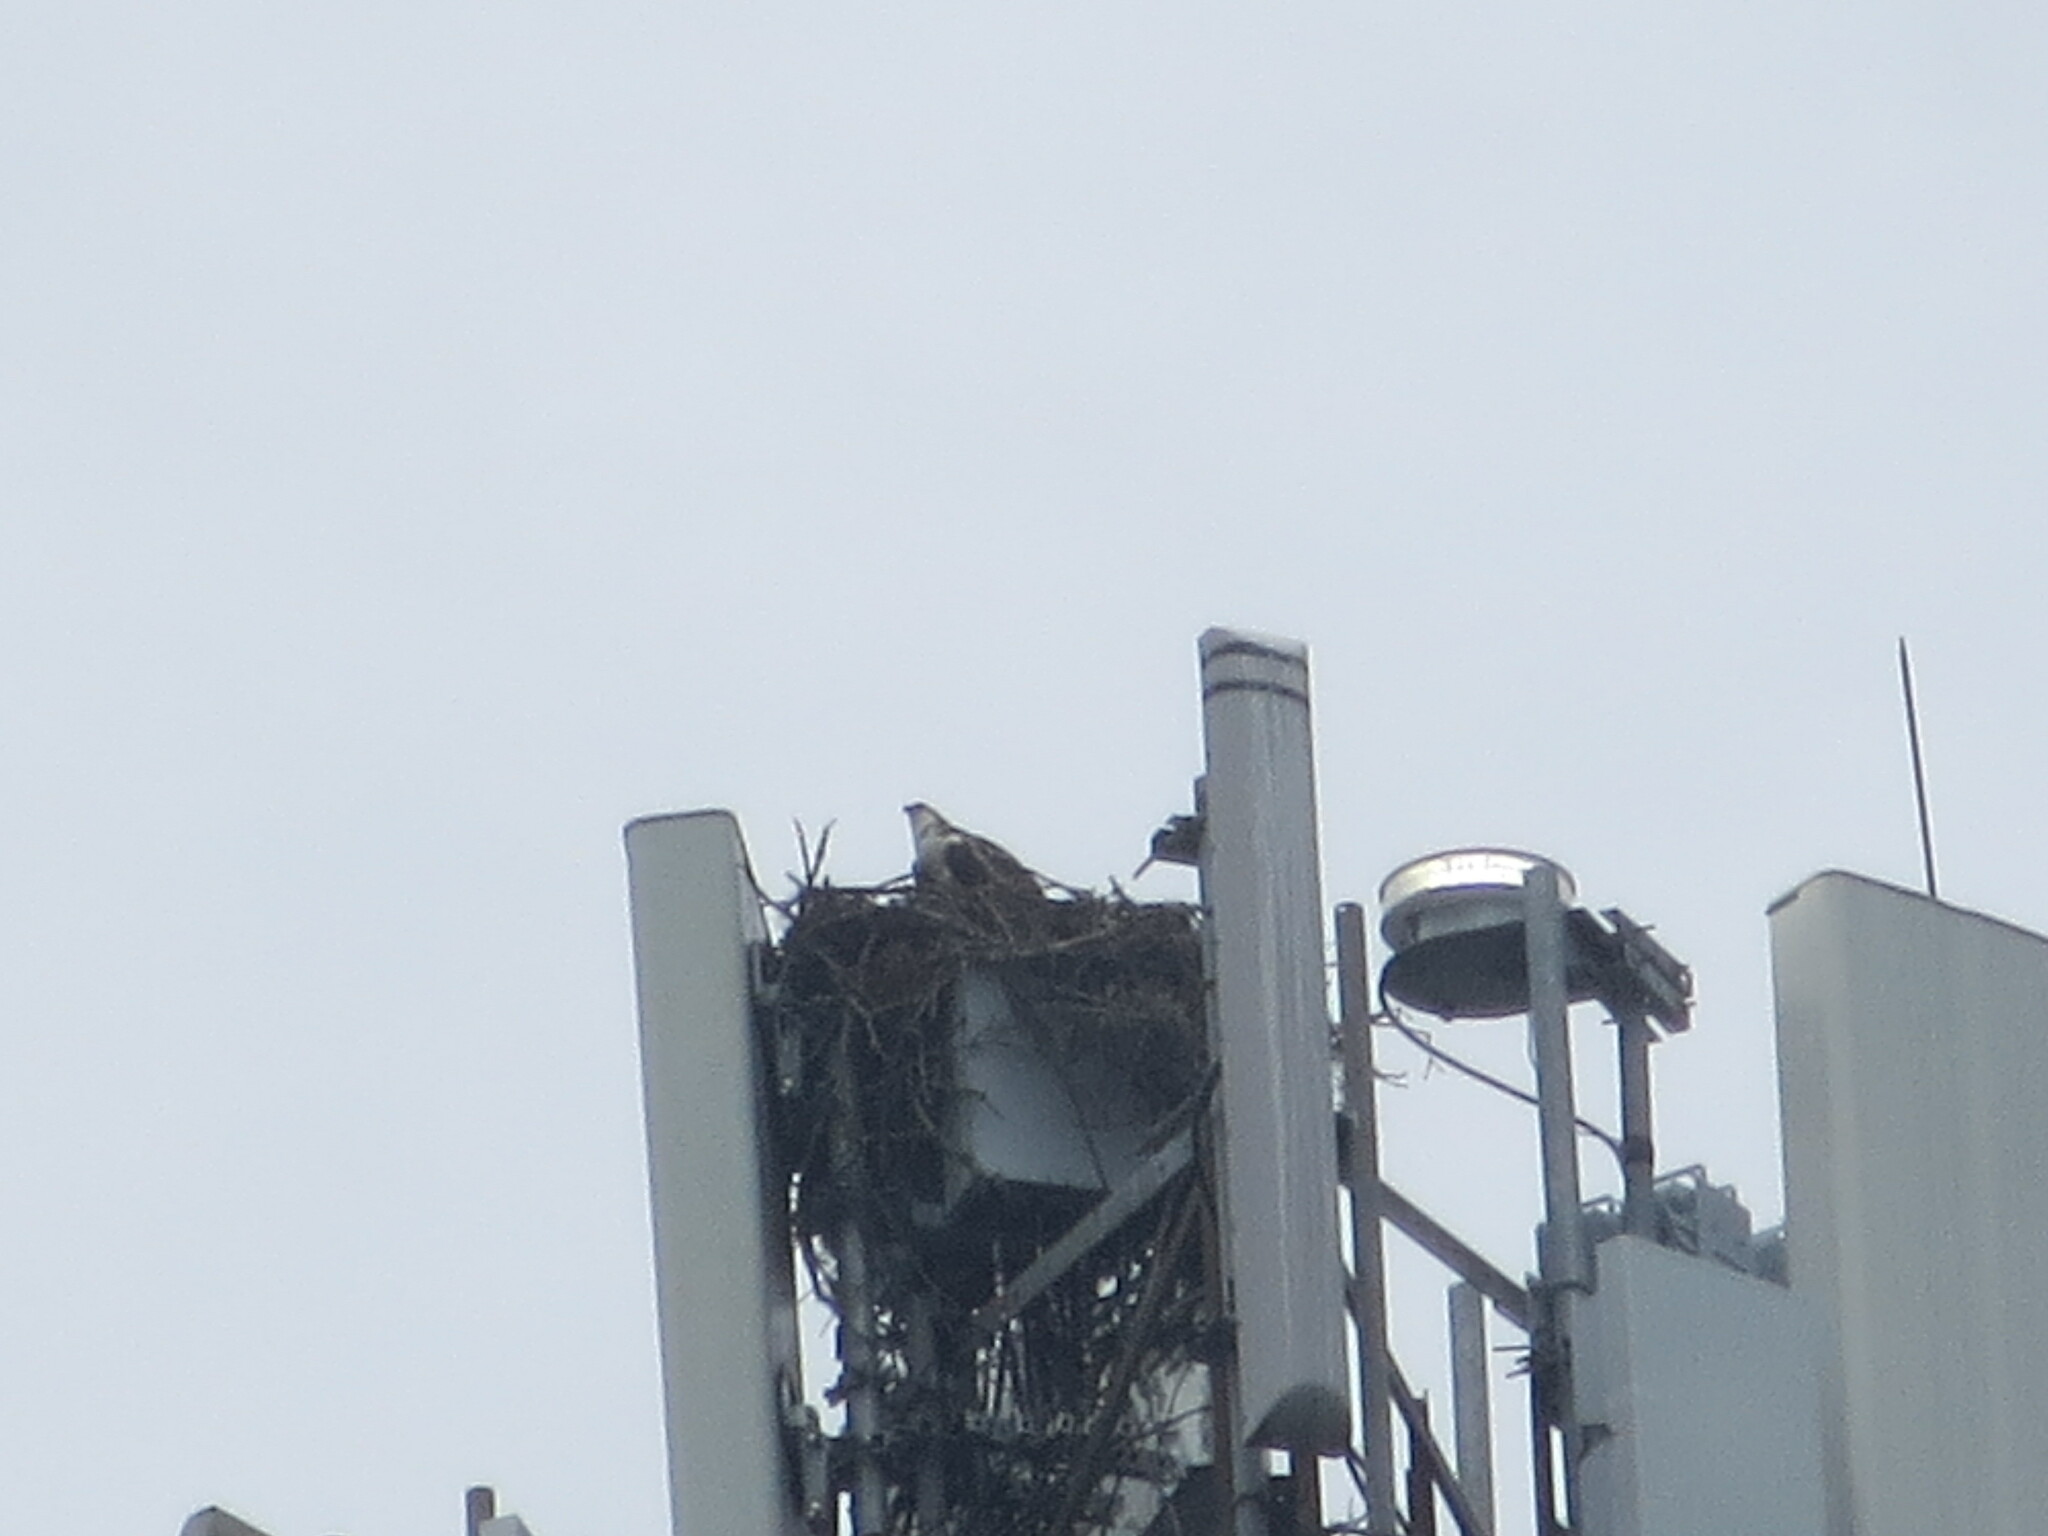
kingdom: Animalia
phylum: Chordata
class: Aves
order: Accipitriformes
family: Pandionidae
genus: Pandion
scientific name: Pandion haliaetus
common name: Osprey
